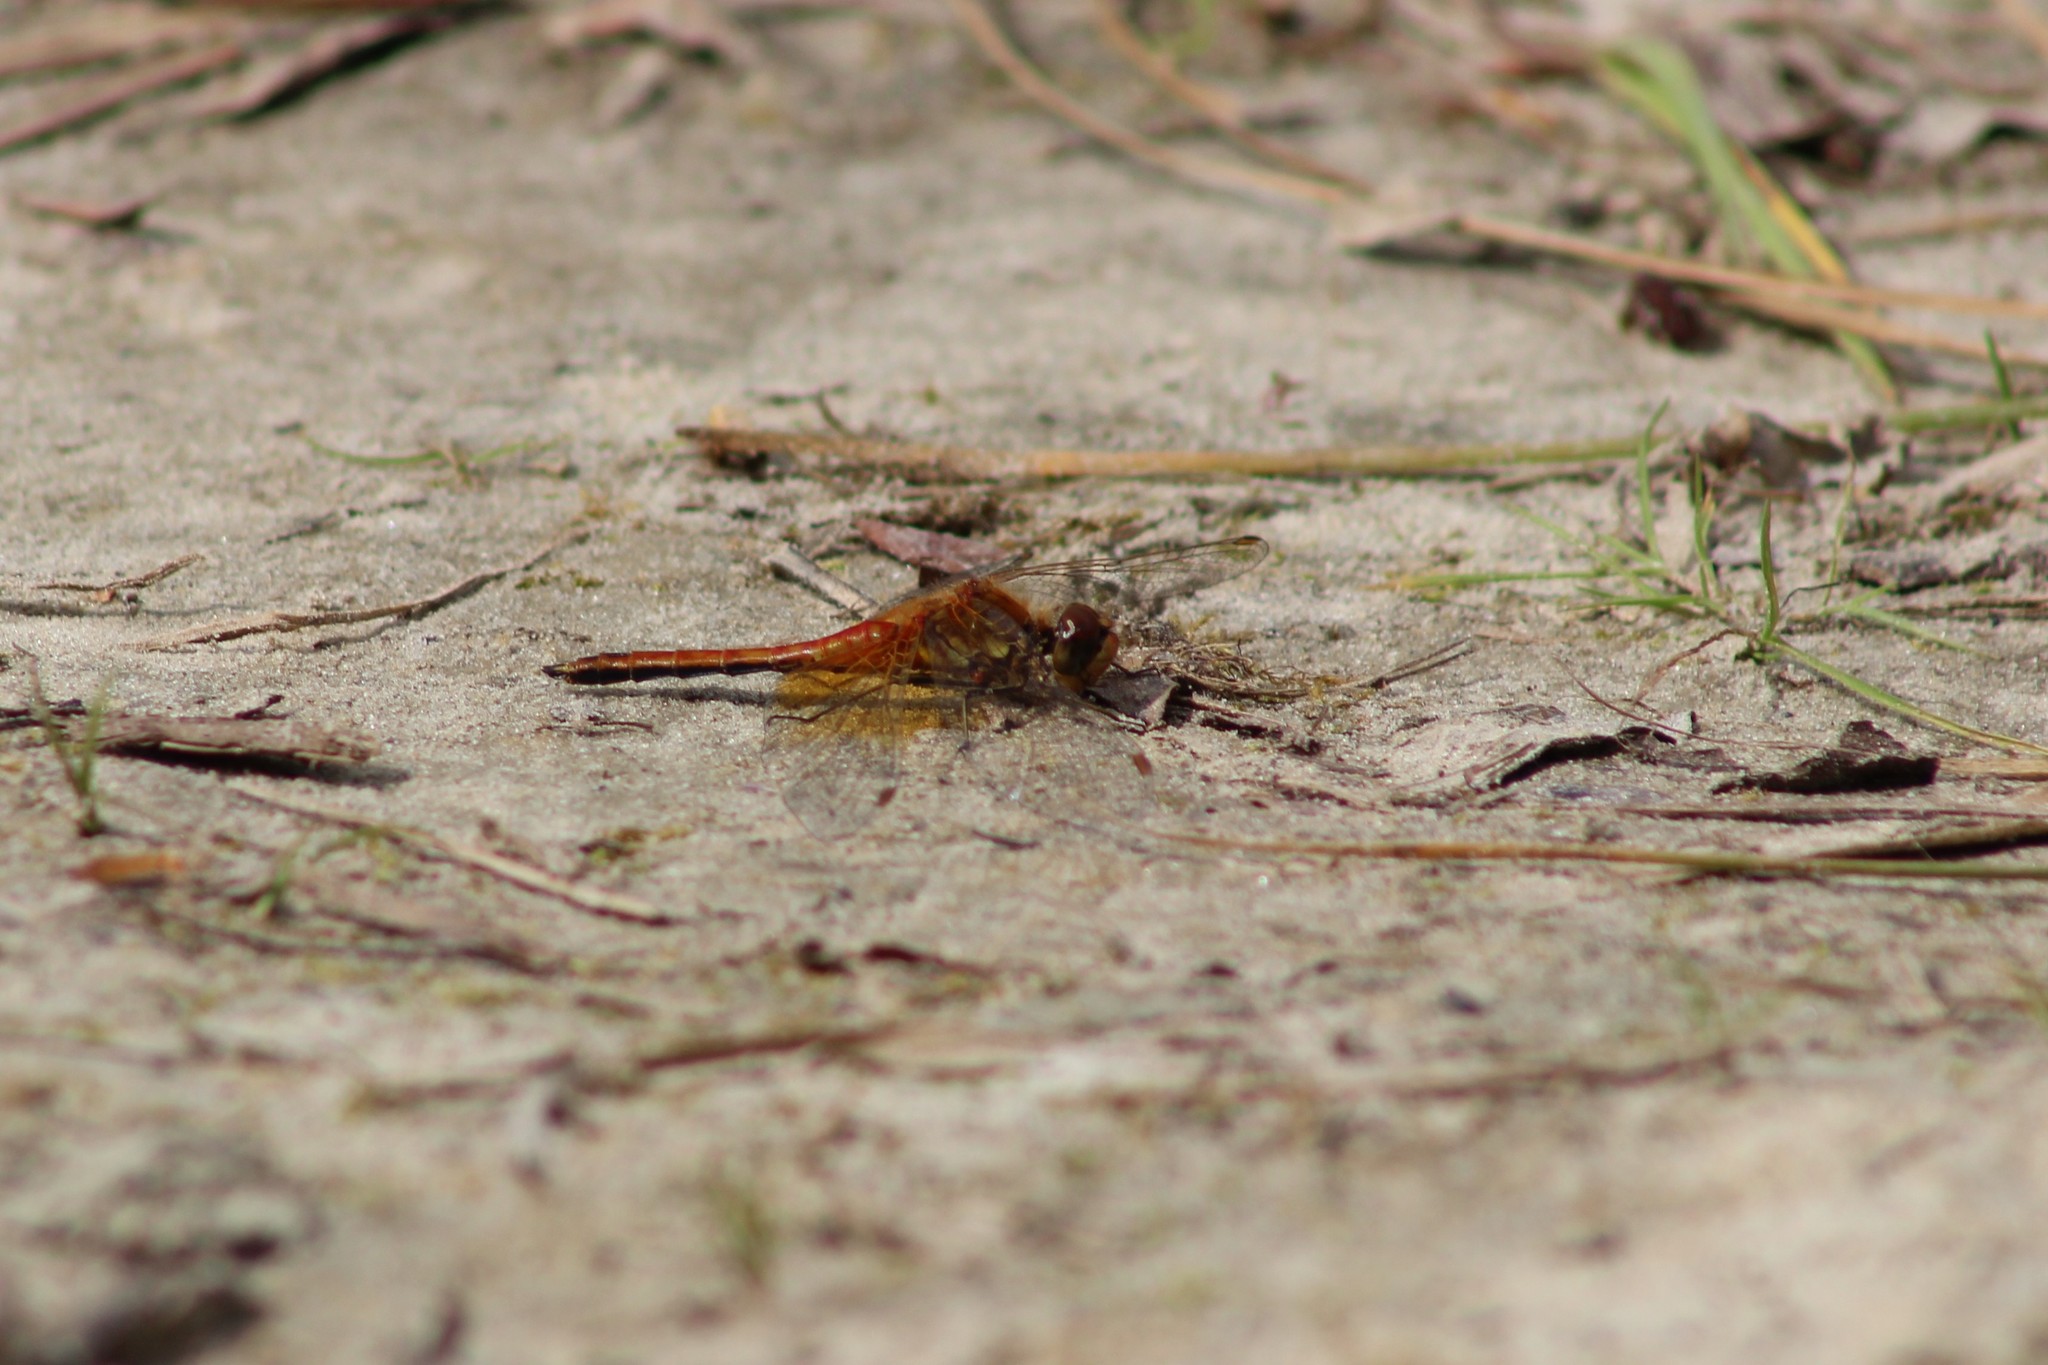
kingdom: Animalia
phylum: Arthropoda
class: Insecta
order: Odonata
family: Libellulidae
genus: Sympetrum
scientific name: Sympetrum flaveolum
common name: Yellow-winged darter
